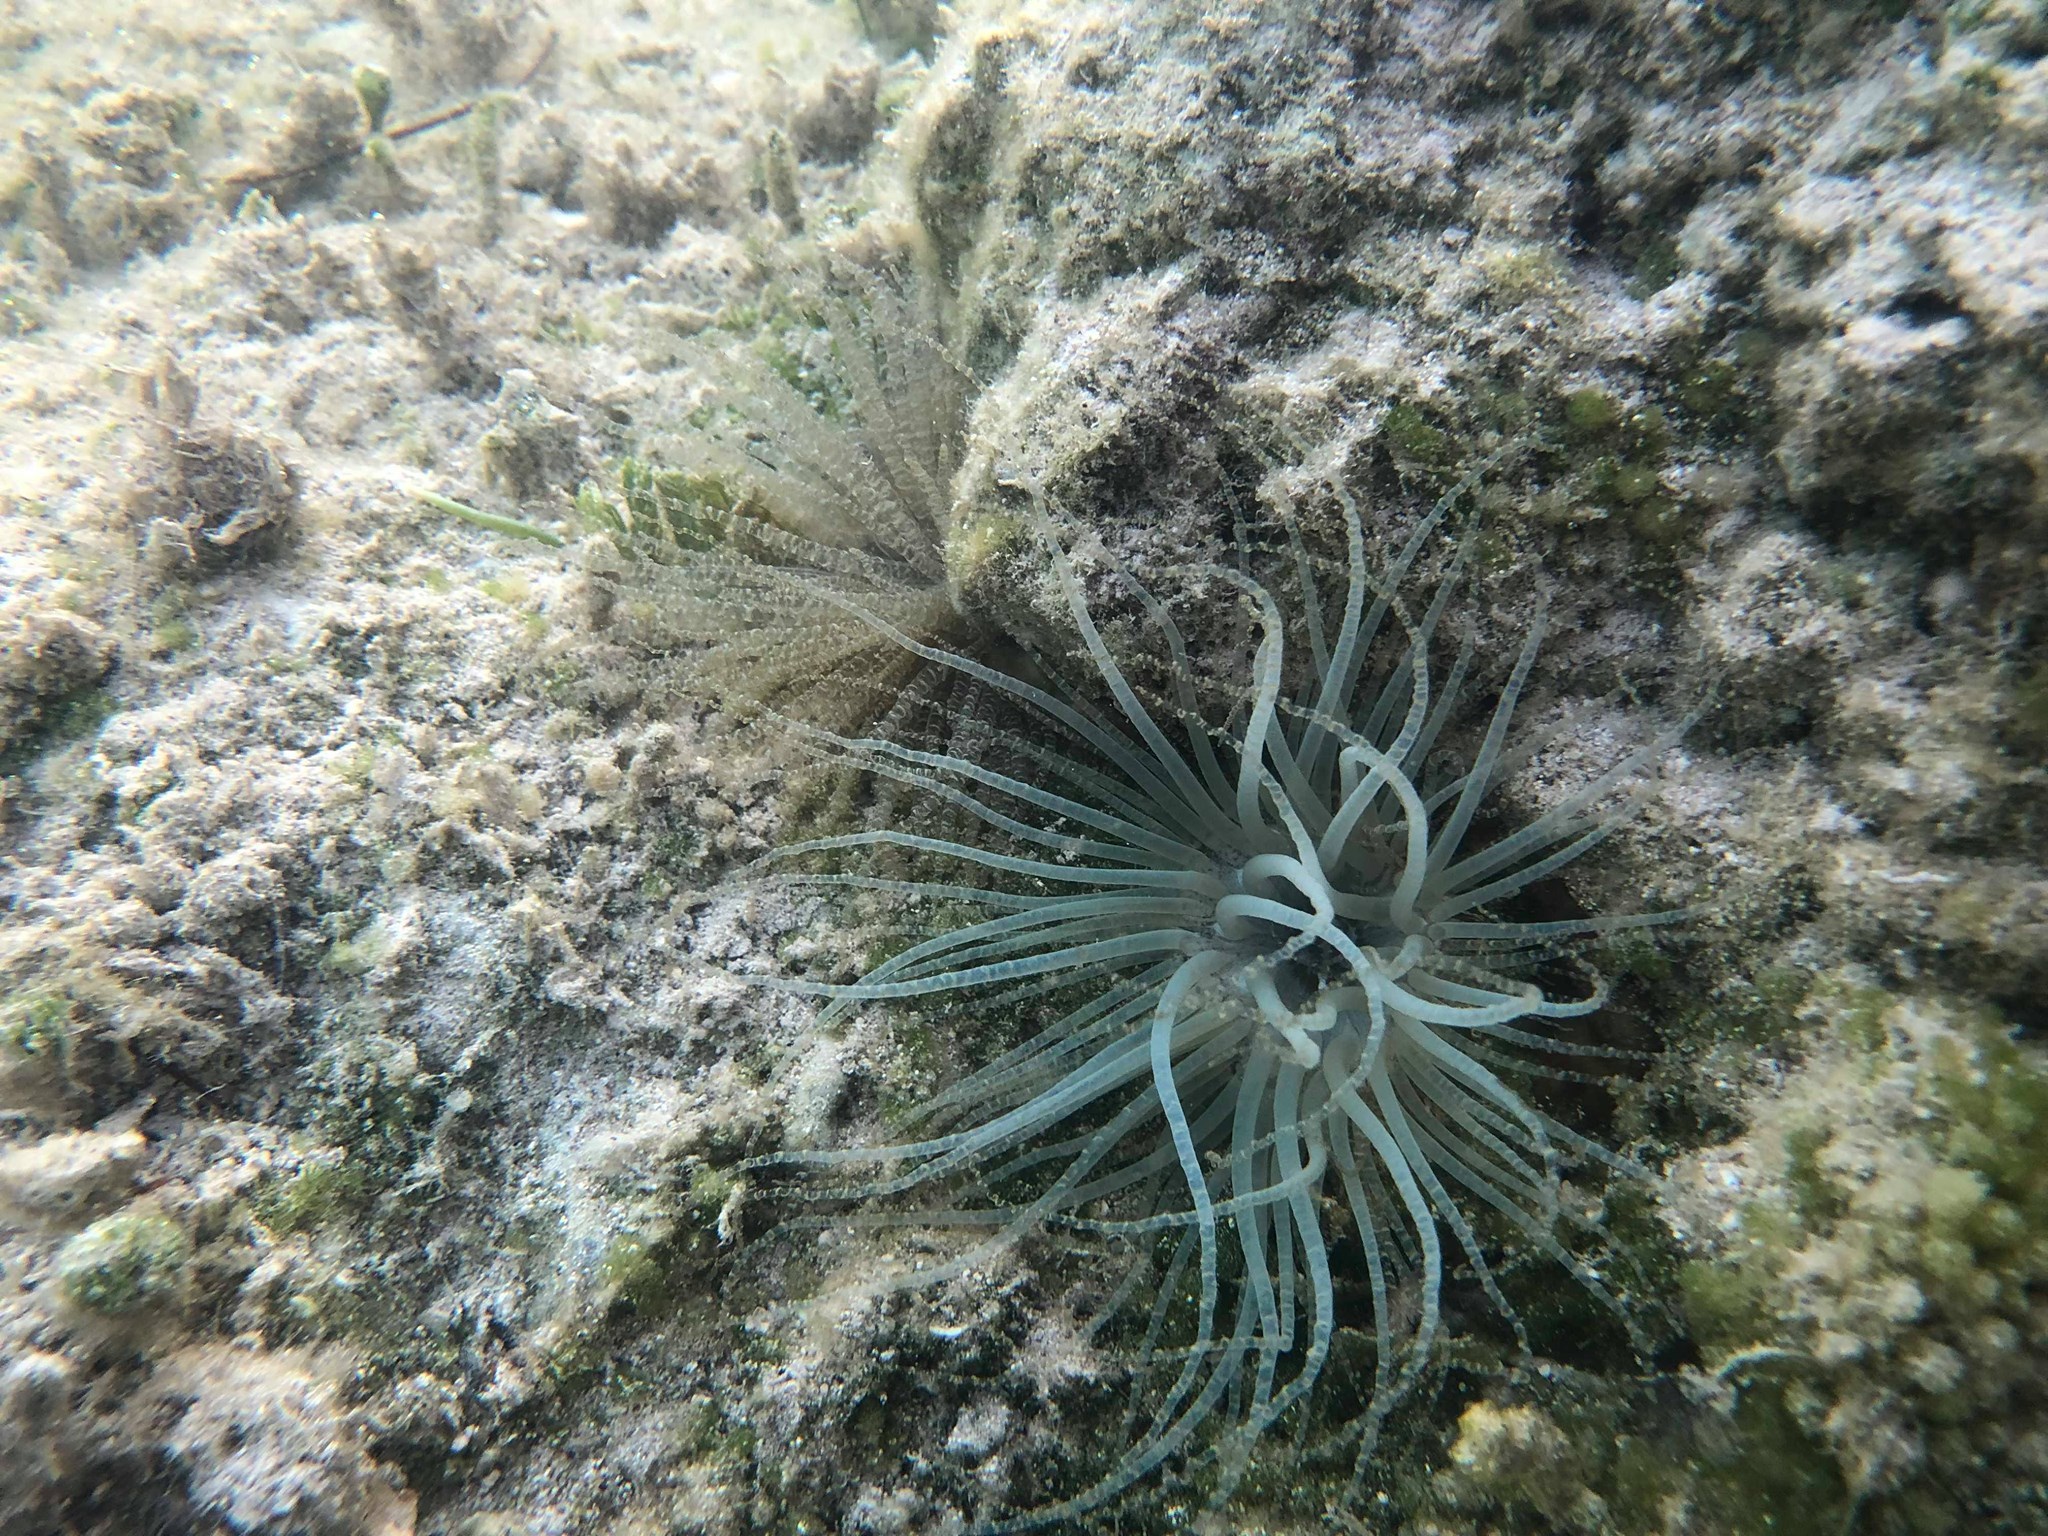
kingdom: Animalia
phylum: Cnidaria
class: Anthozoa
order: Actiniaria
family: Aiptasiidae
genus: Bartholomea
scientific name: Bartholomea annulata
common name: Corkscrew anemone
